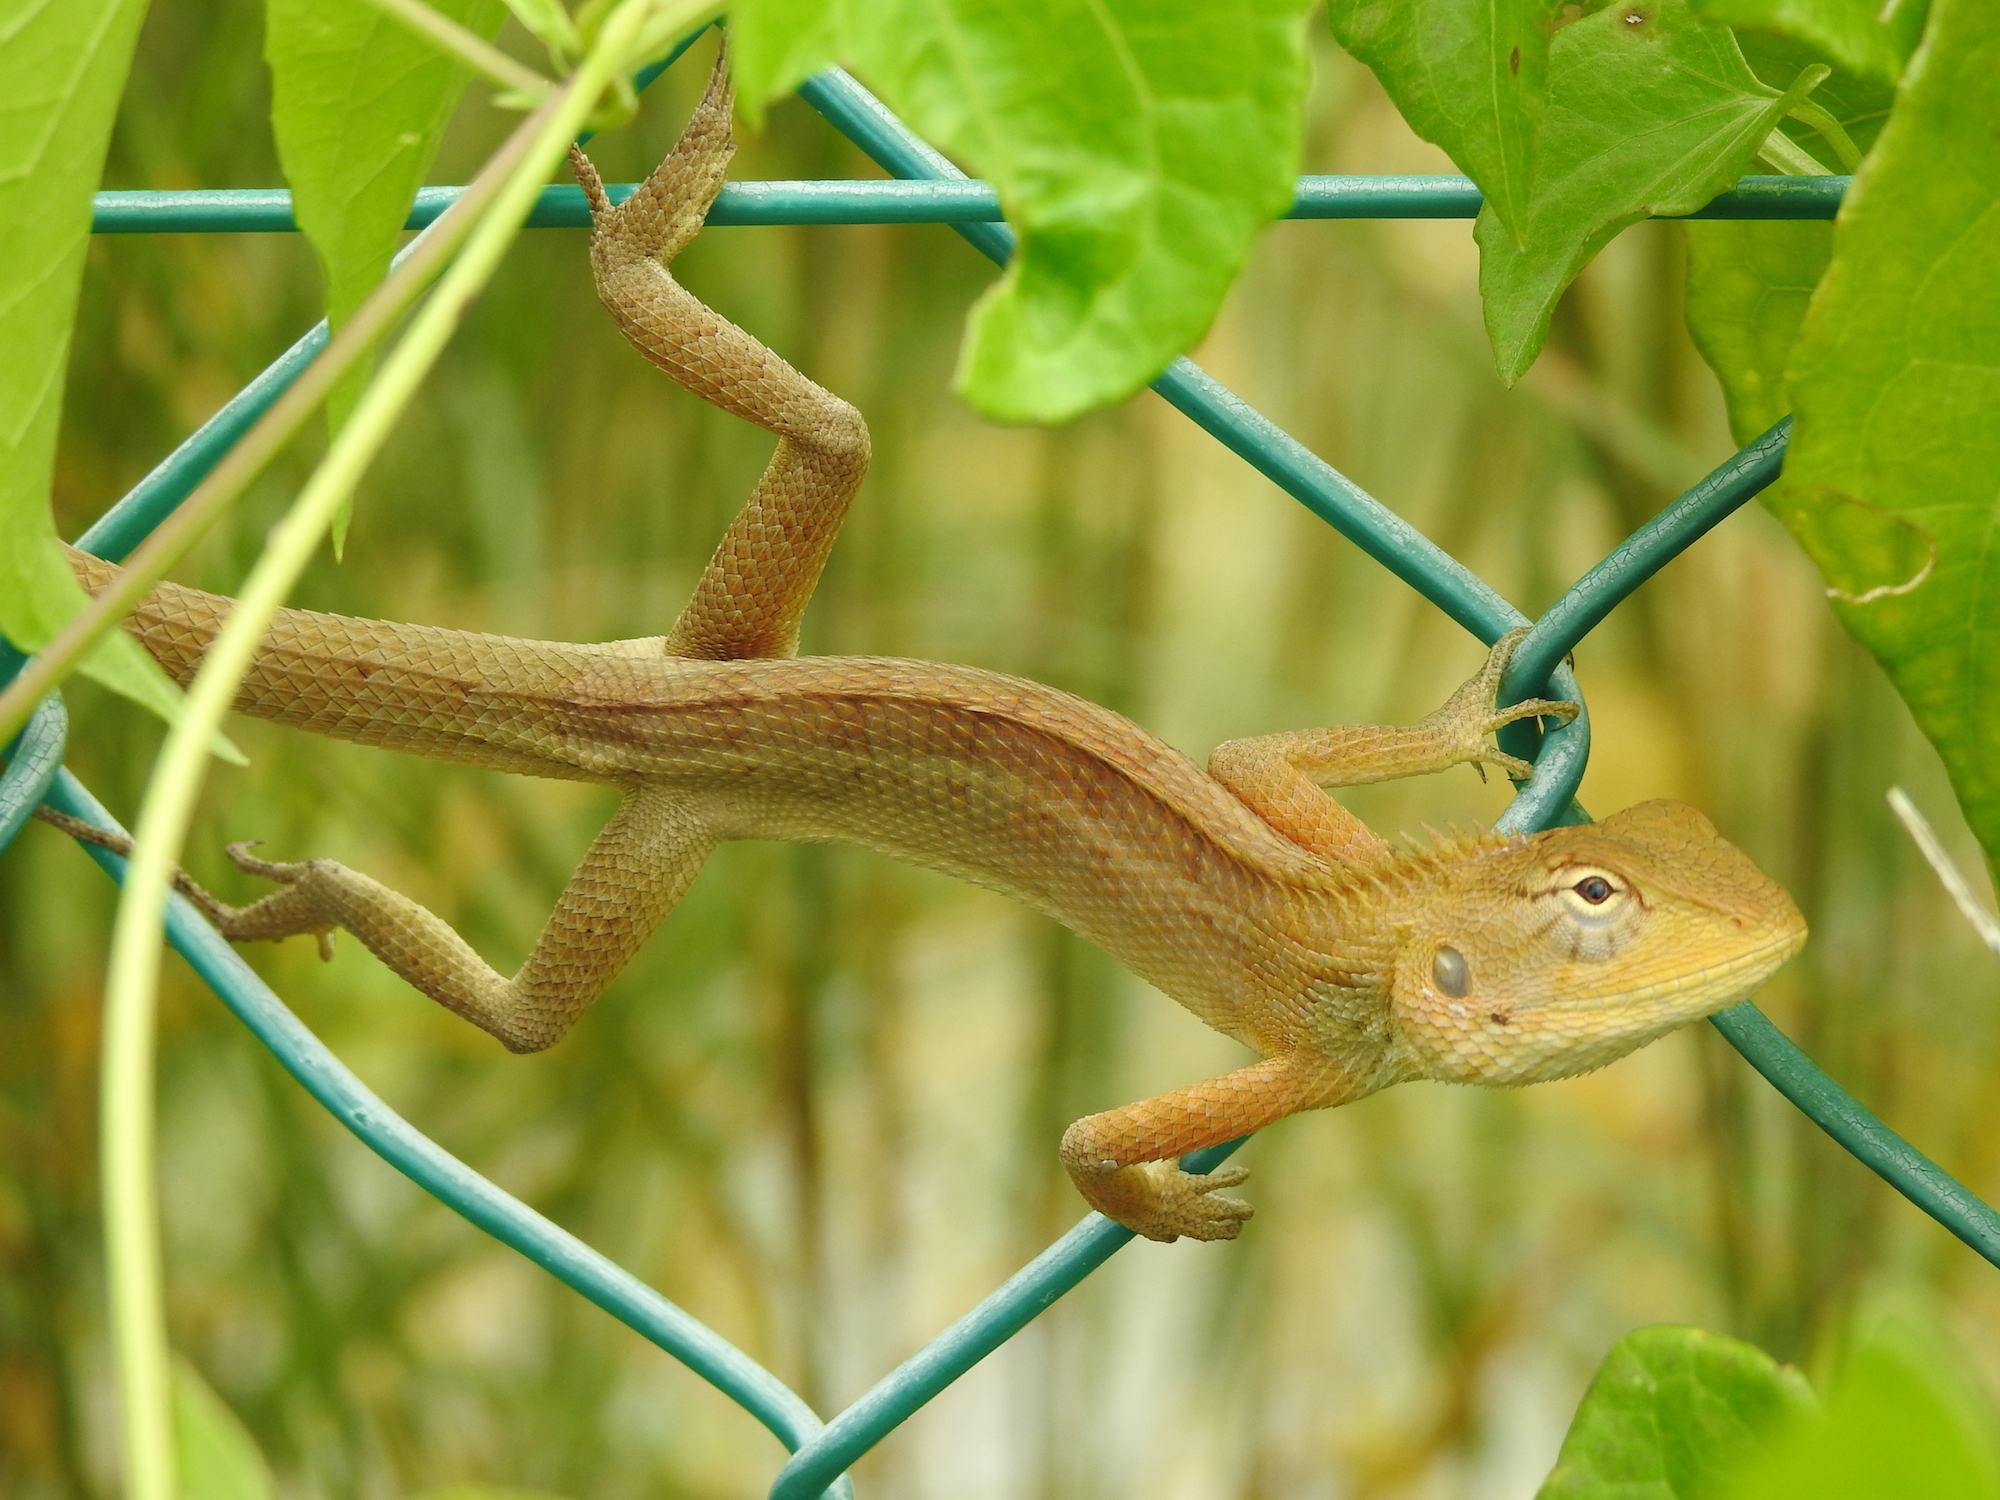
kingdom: Animalia
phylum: Chordata
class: Squamata
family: Agamidae
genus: Calotes
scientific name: Calotes versicolor
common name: Oriental garden lizard
